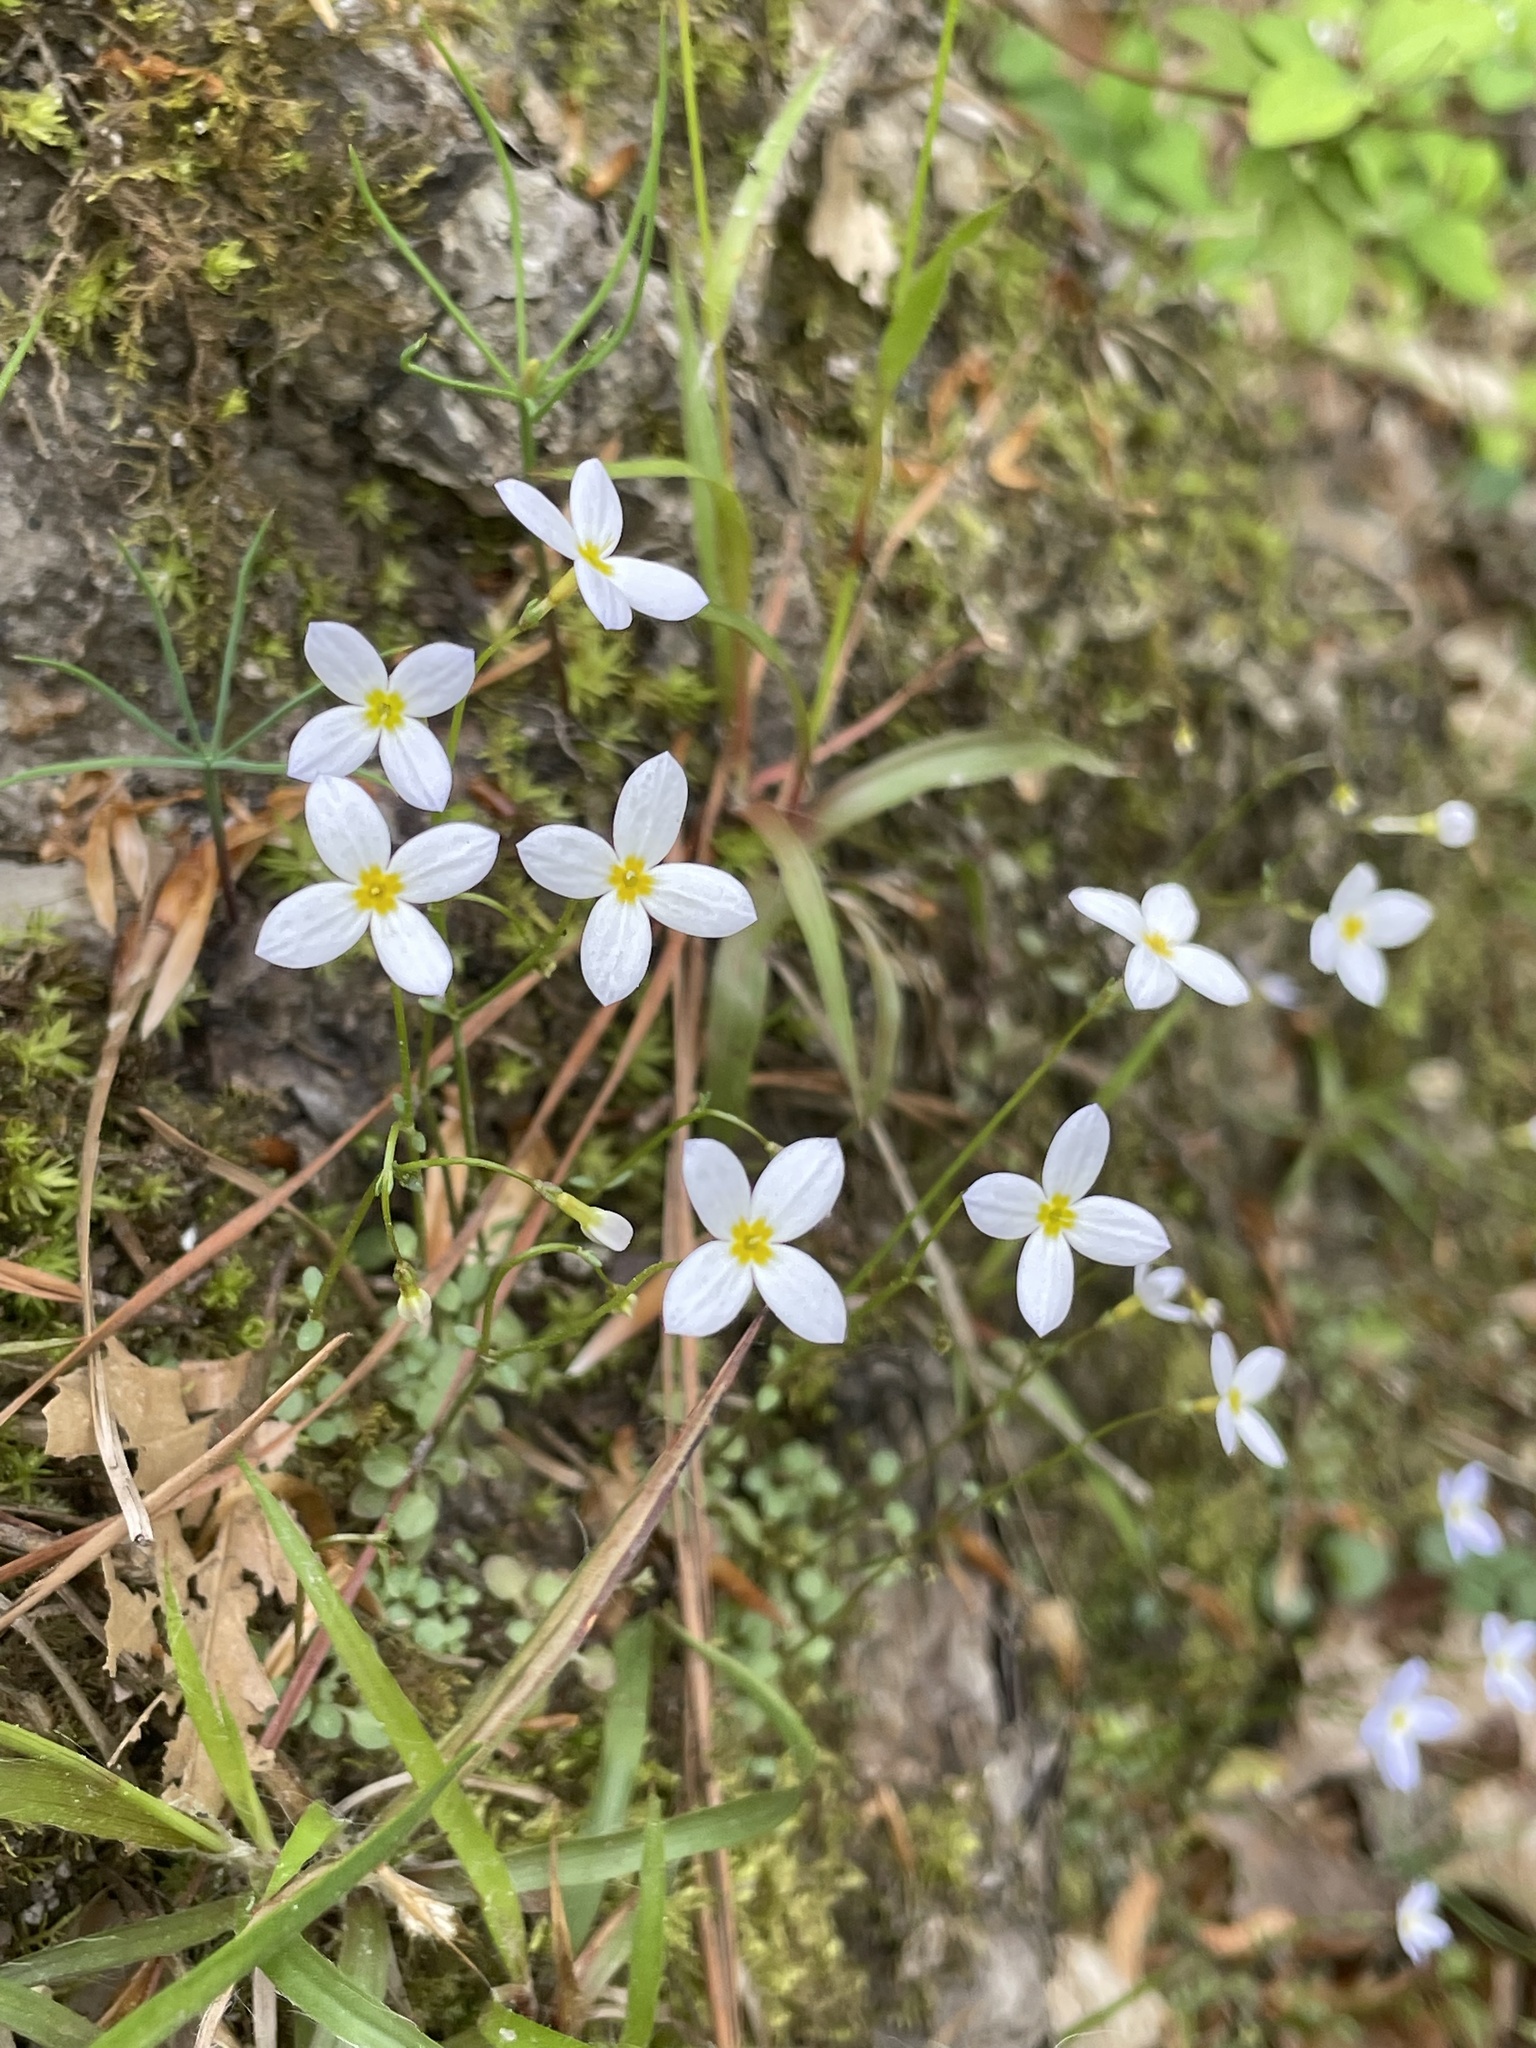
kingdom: Plantae
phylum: Tracheophyta
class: Magnoliopsida
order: Gentianales
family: Rubiaceae
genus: Houstonia
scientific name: Houstonia caerulea
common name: Bluets
